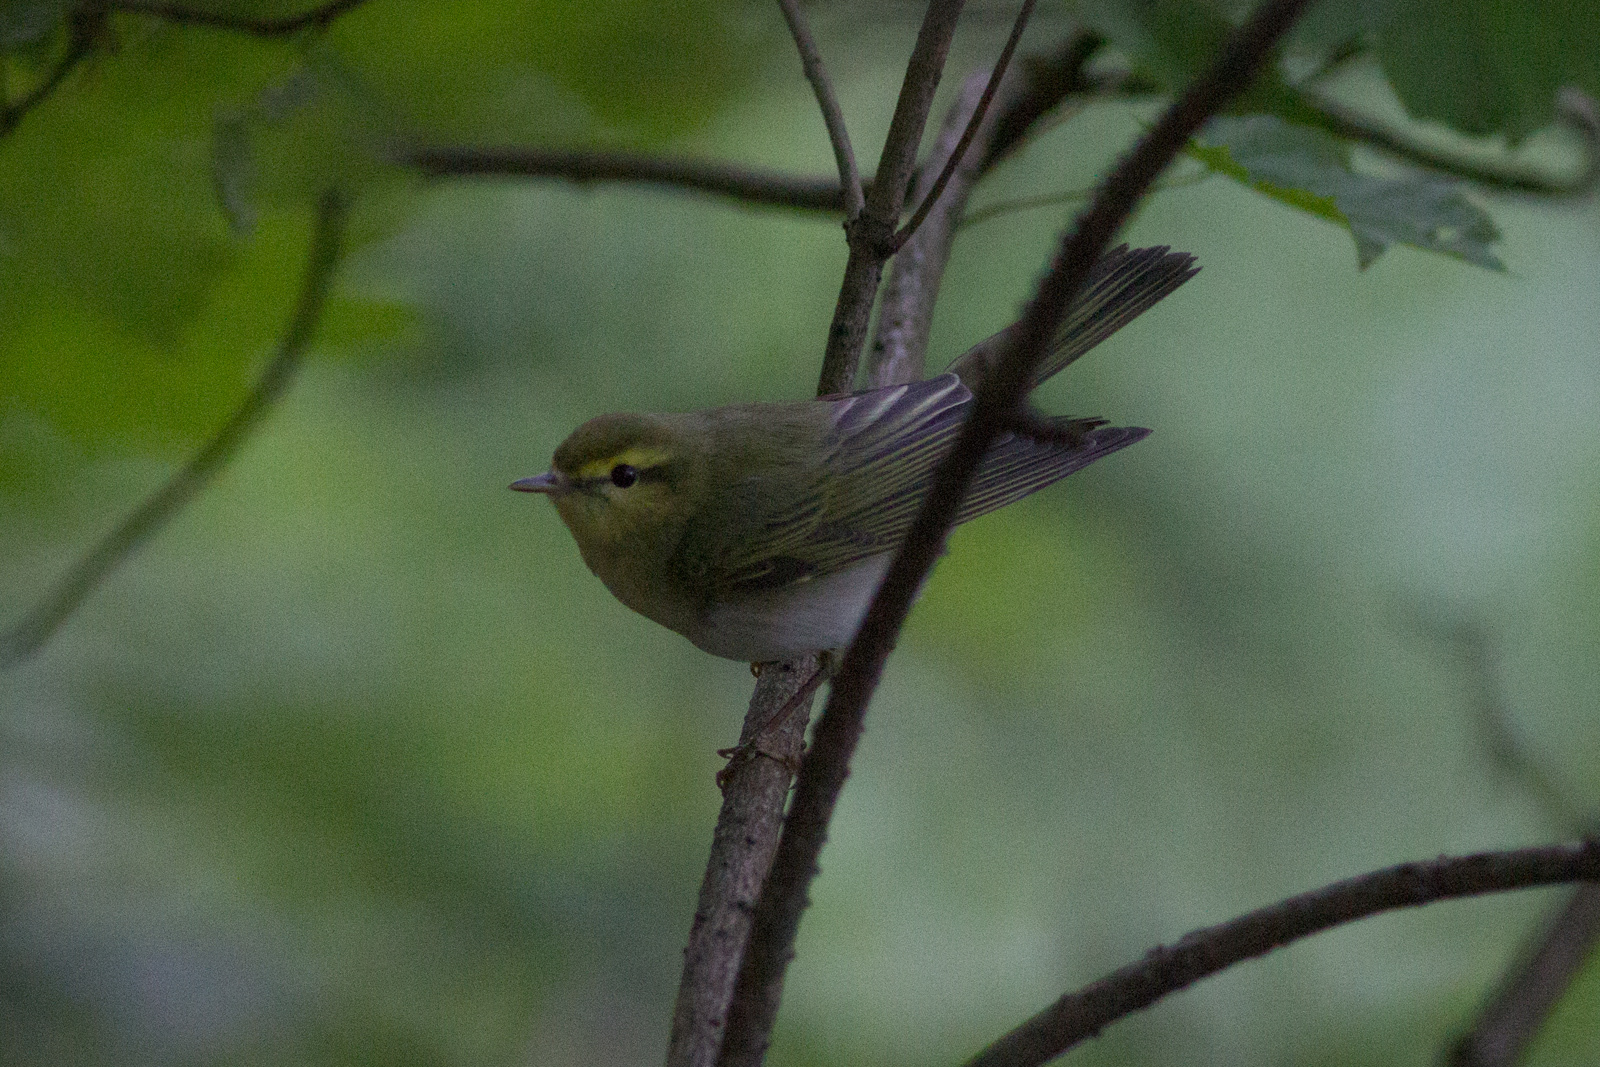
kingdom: Animalia
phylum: Chordata
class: Aves
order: Passeriformes
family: Phylloscopidae
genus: Phylloscopus
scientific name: Phylloscopus sibillatrix
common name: Wood warbler
